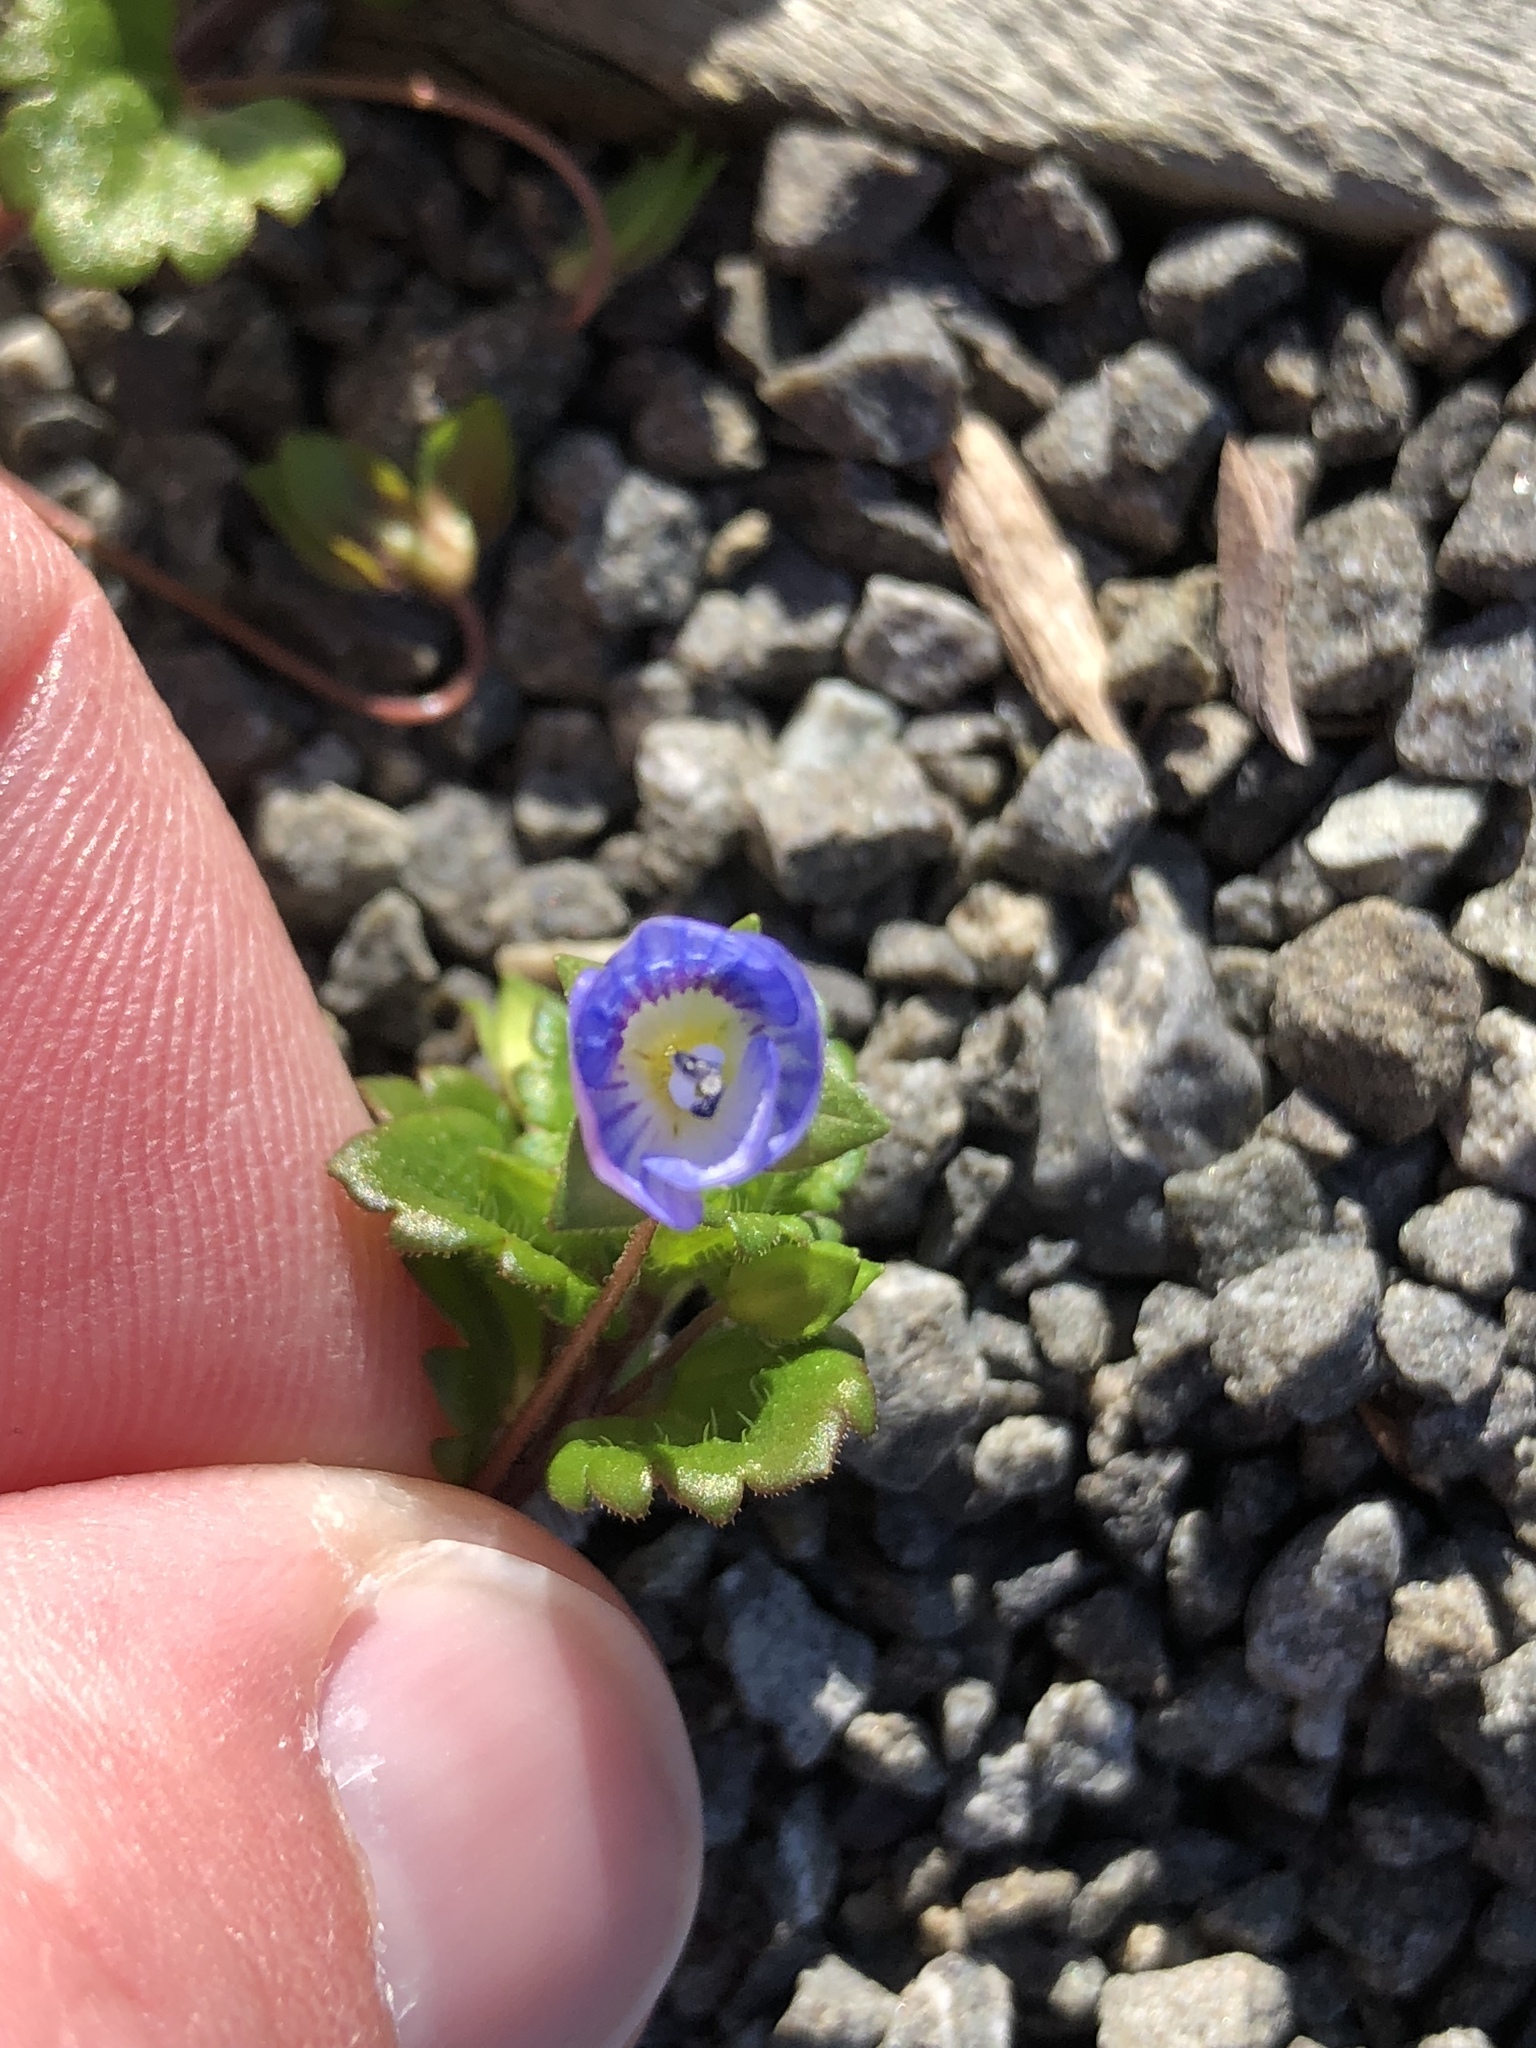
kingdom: Plantae
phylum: Tracheophyta
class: Magnoliopsida
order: Lamiales
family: Plantaginaceae
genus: Veronica
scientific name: Veronica persica
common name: Common field-speedwell
